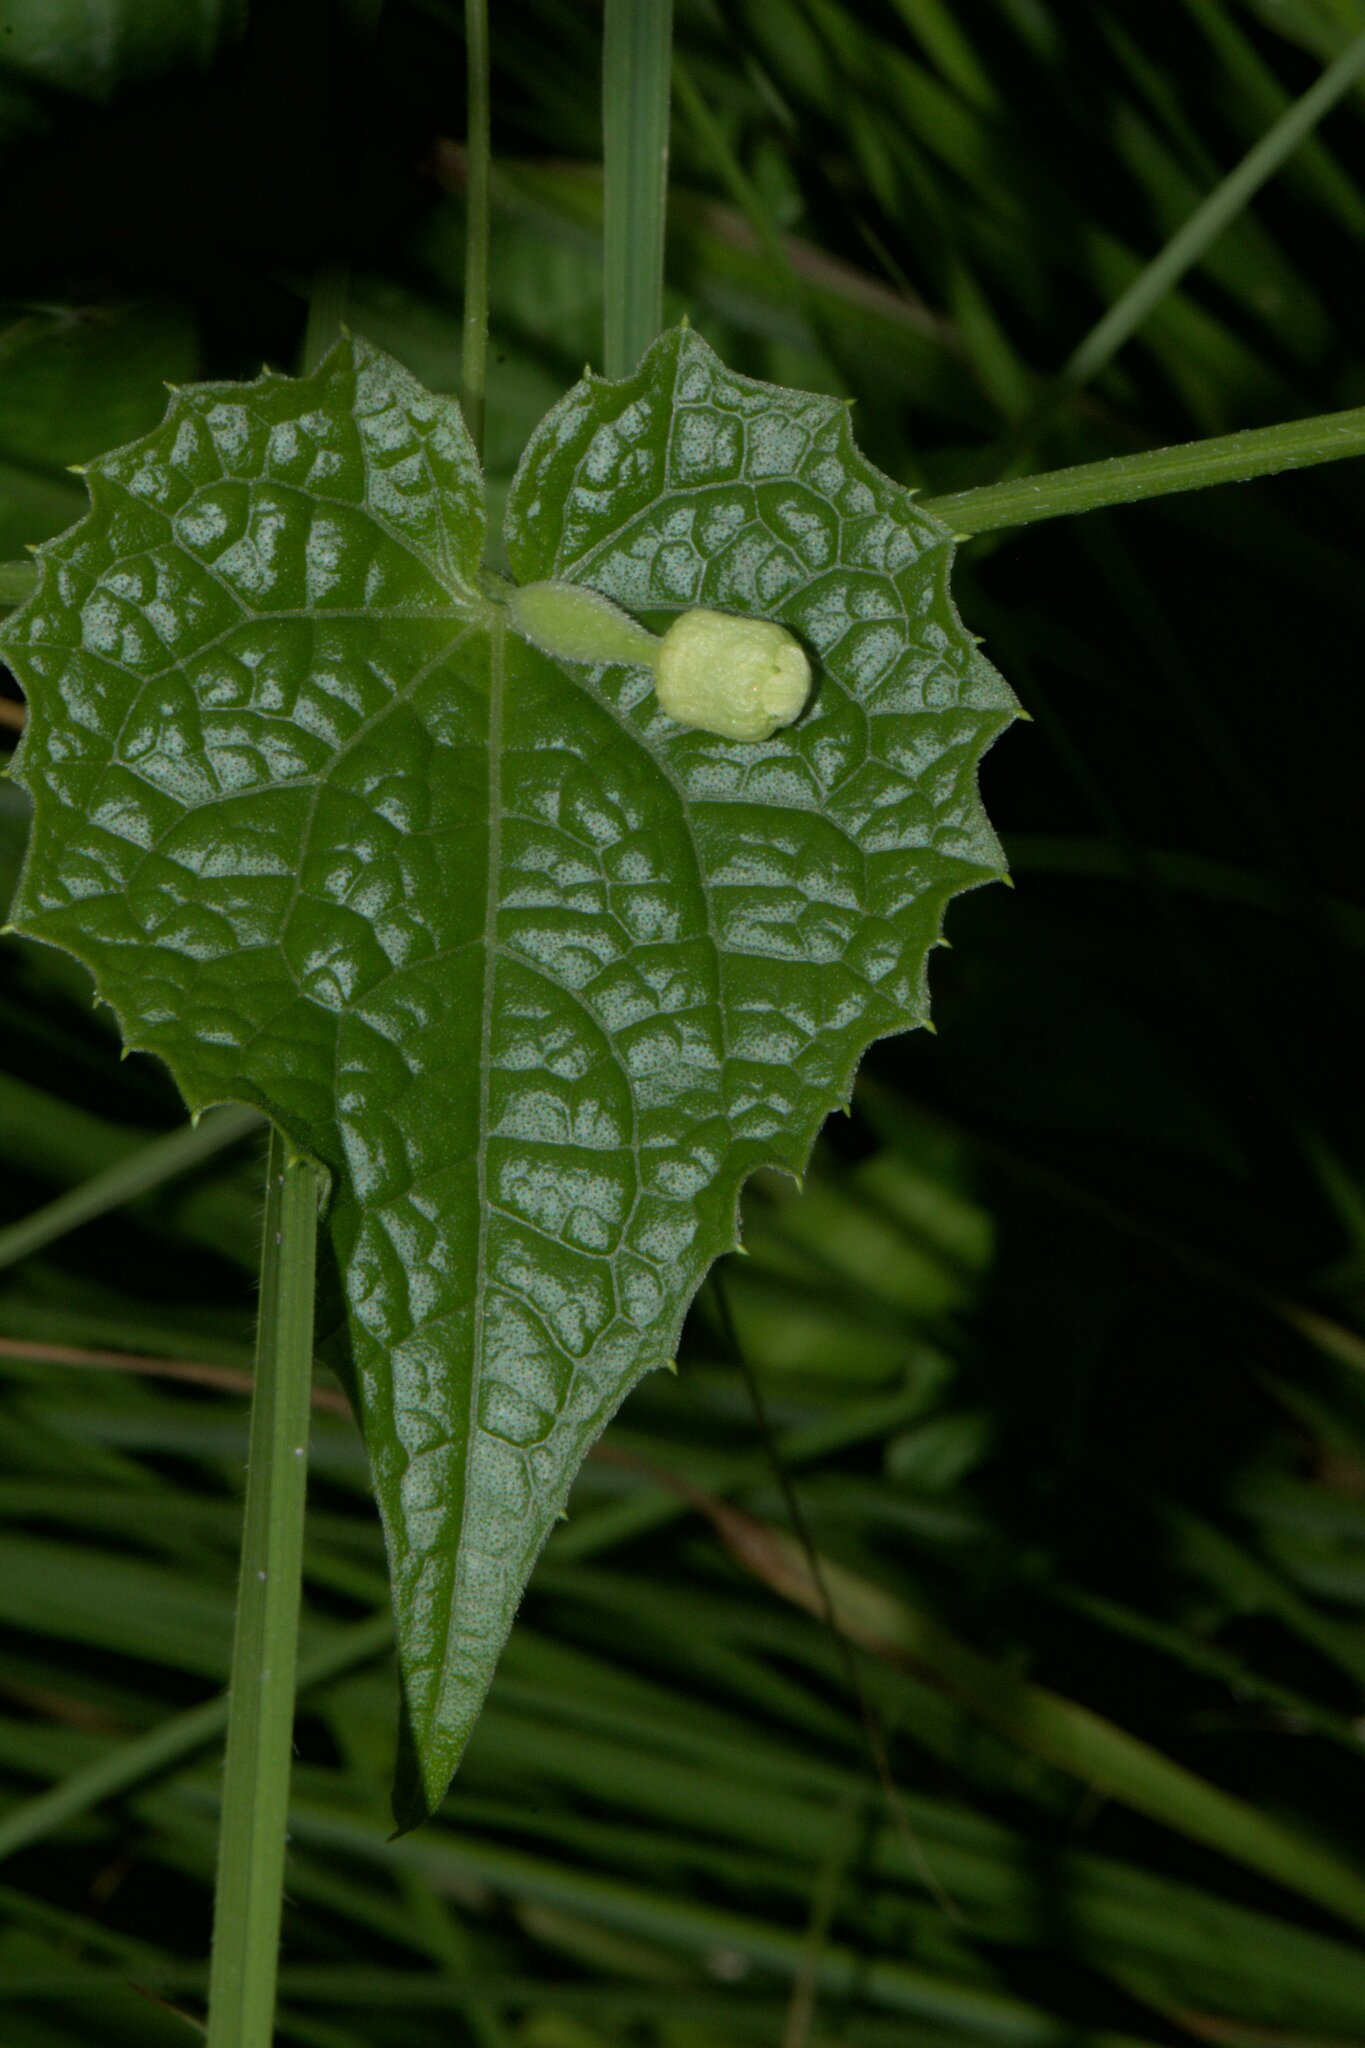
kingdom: Plantae
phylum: Tracheophyta
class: Magnoliopsida
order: Cucurbitales
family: Cucurbitaceae
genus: Solena
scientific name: Solena amplexicaulis
